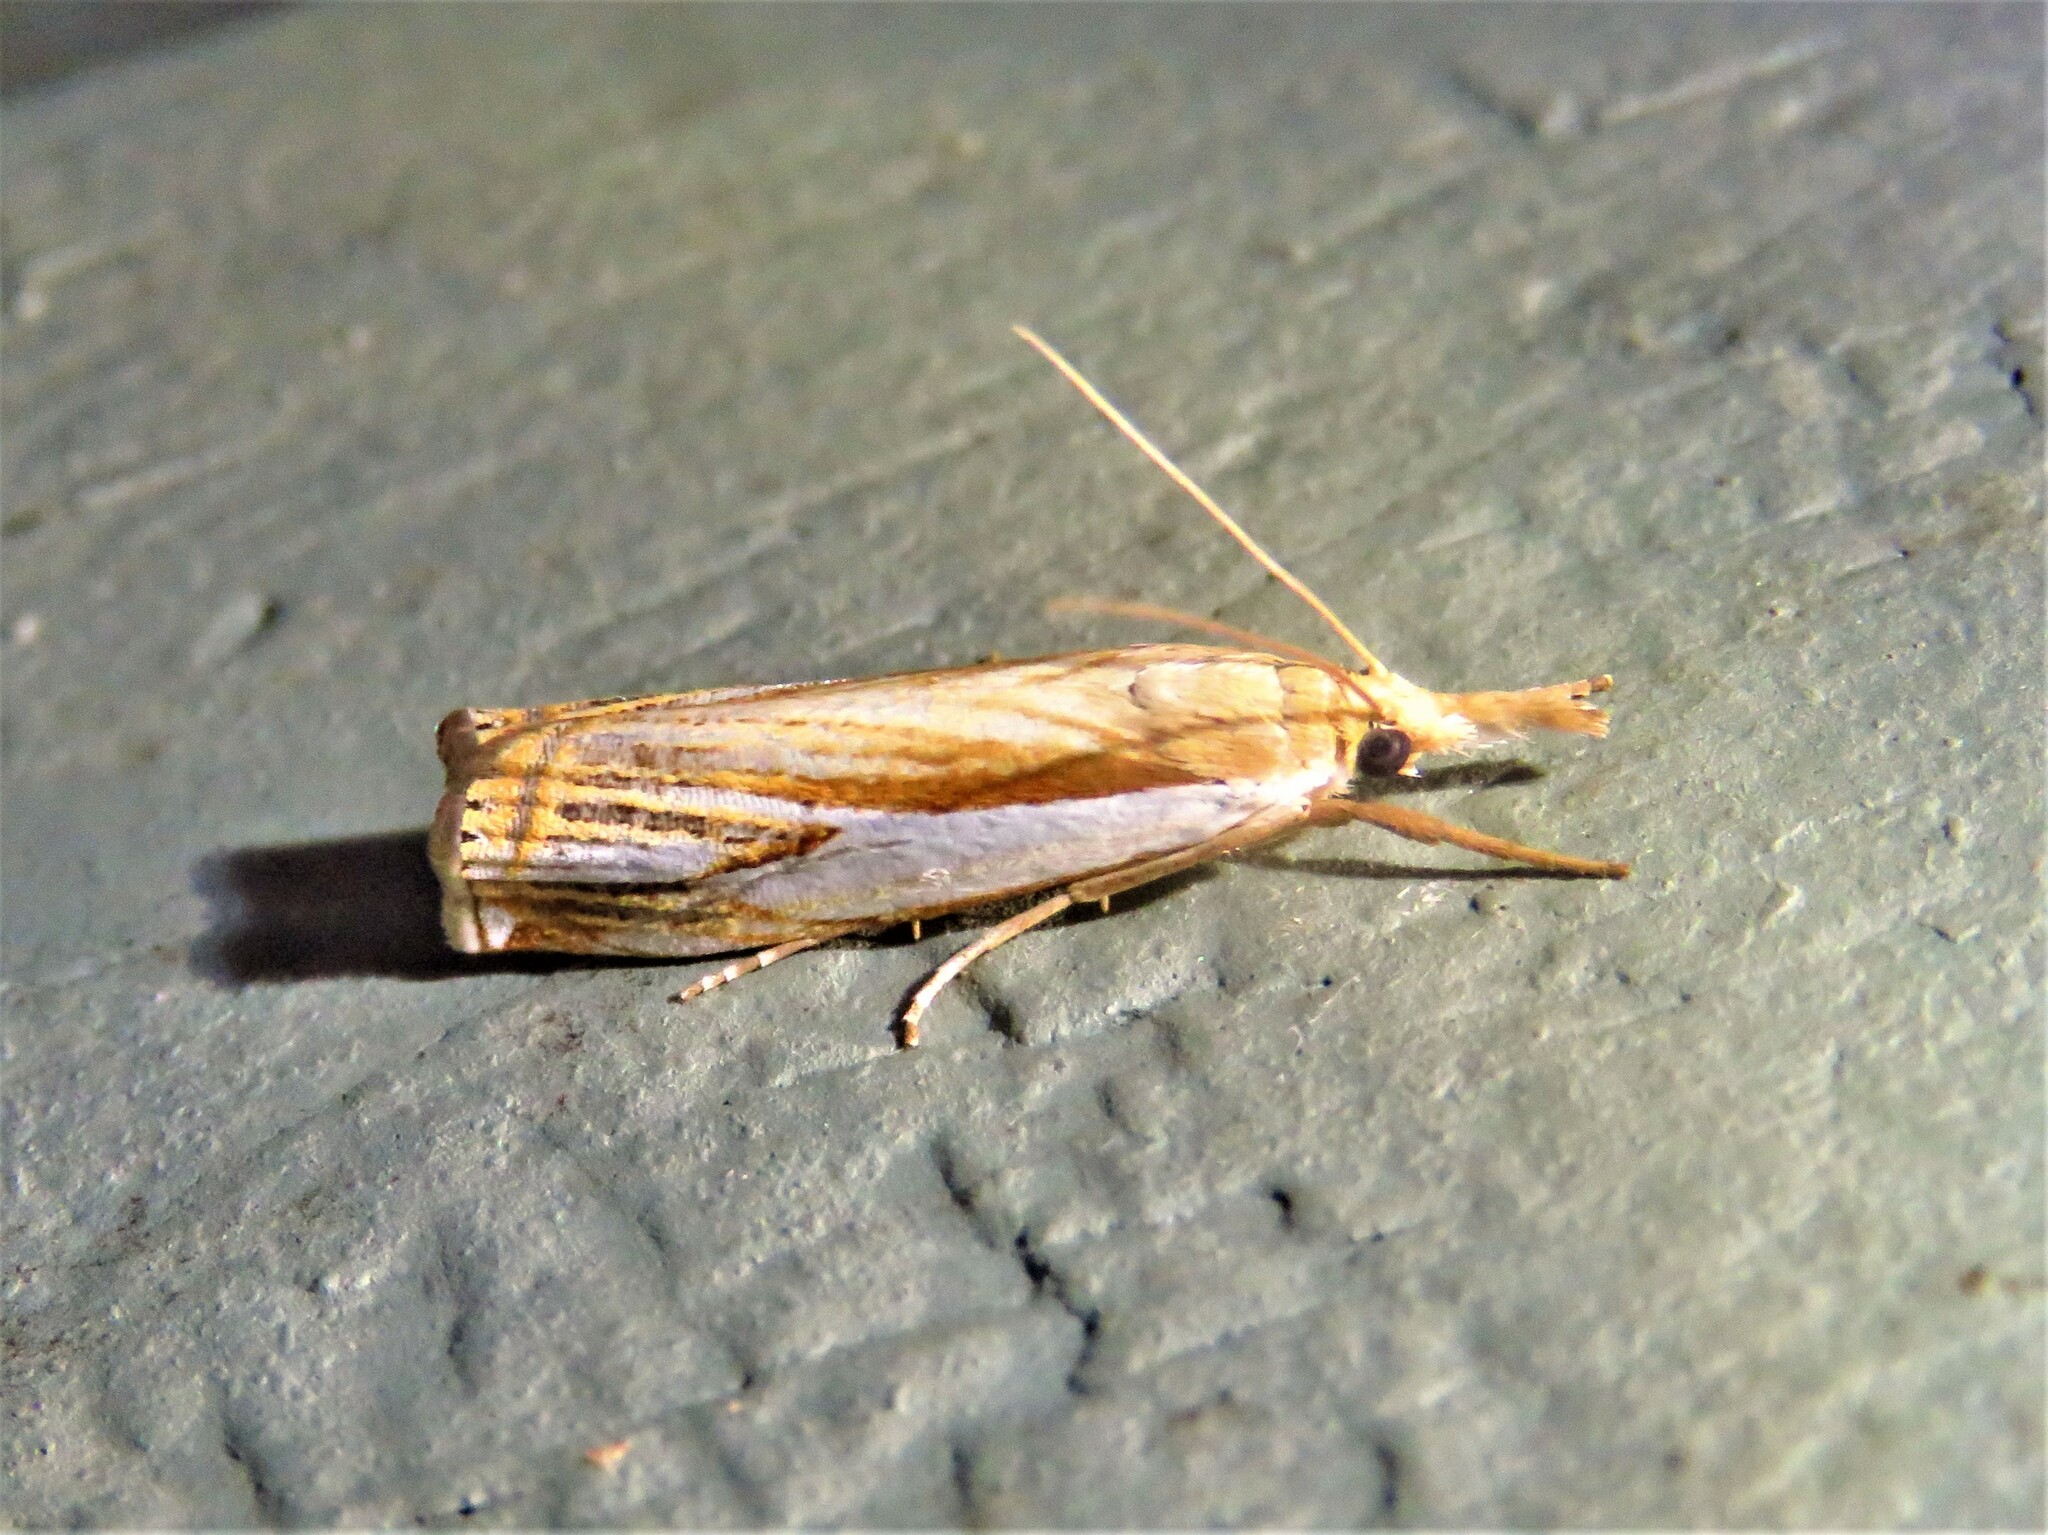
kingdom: Animalia
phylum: Arthropoda
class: Insecta
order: Lepidoptera
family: Crambidae
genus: Crambus
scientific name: Crambus agitatellus
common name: Double-banded grass-veneer
